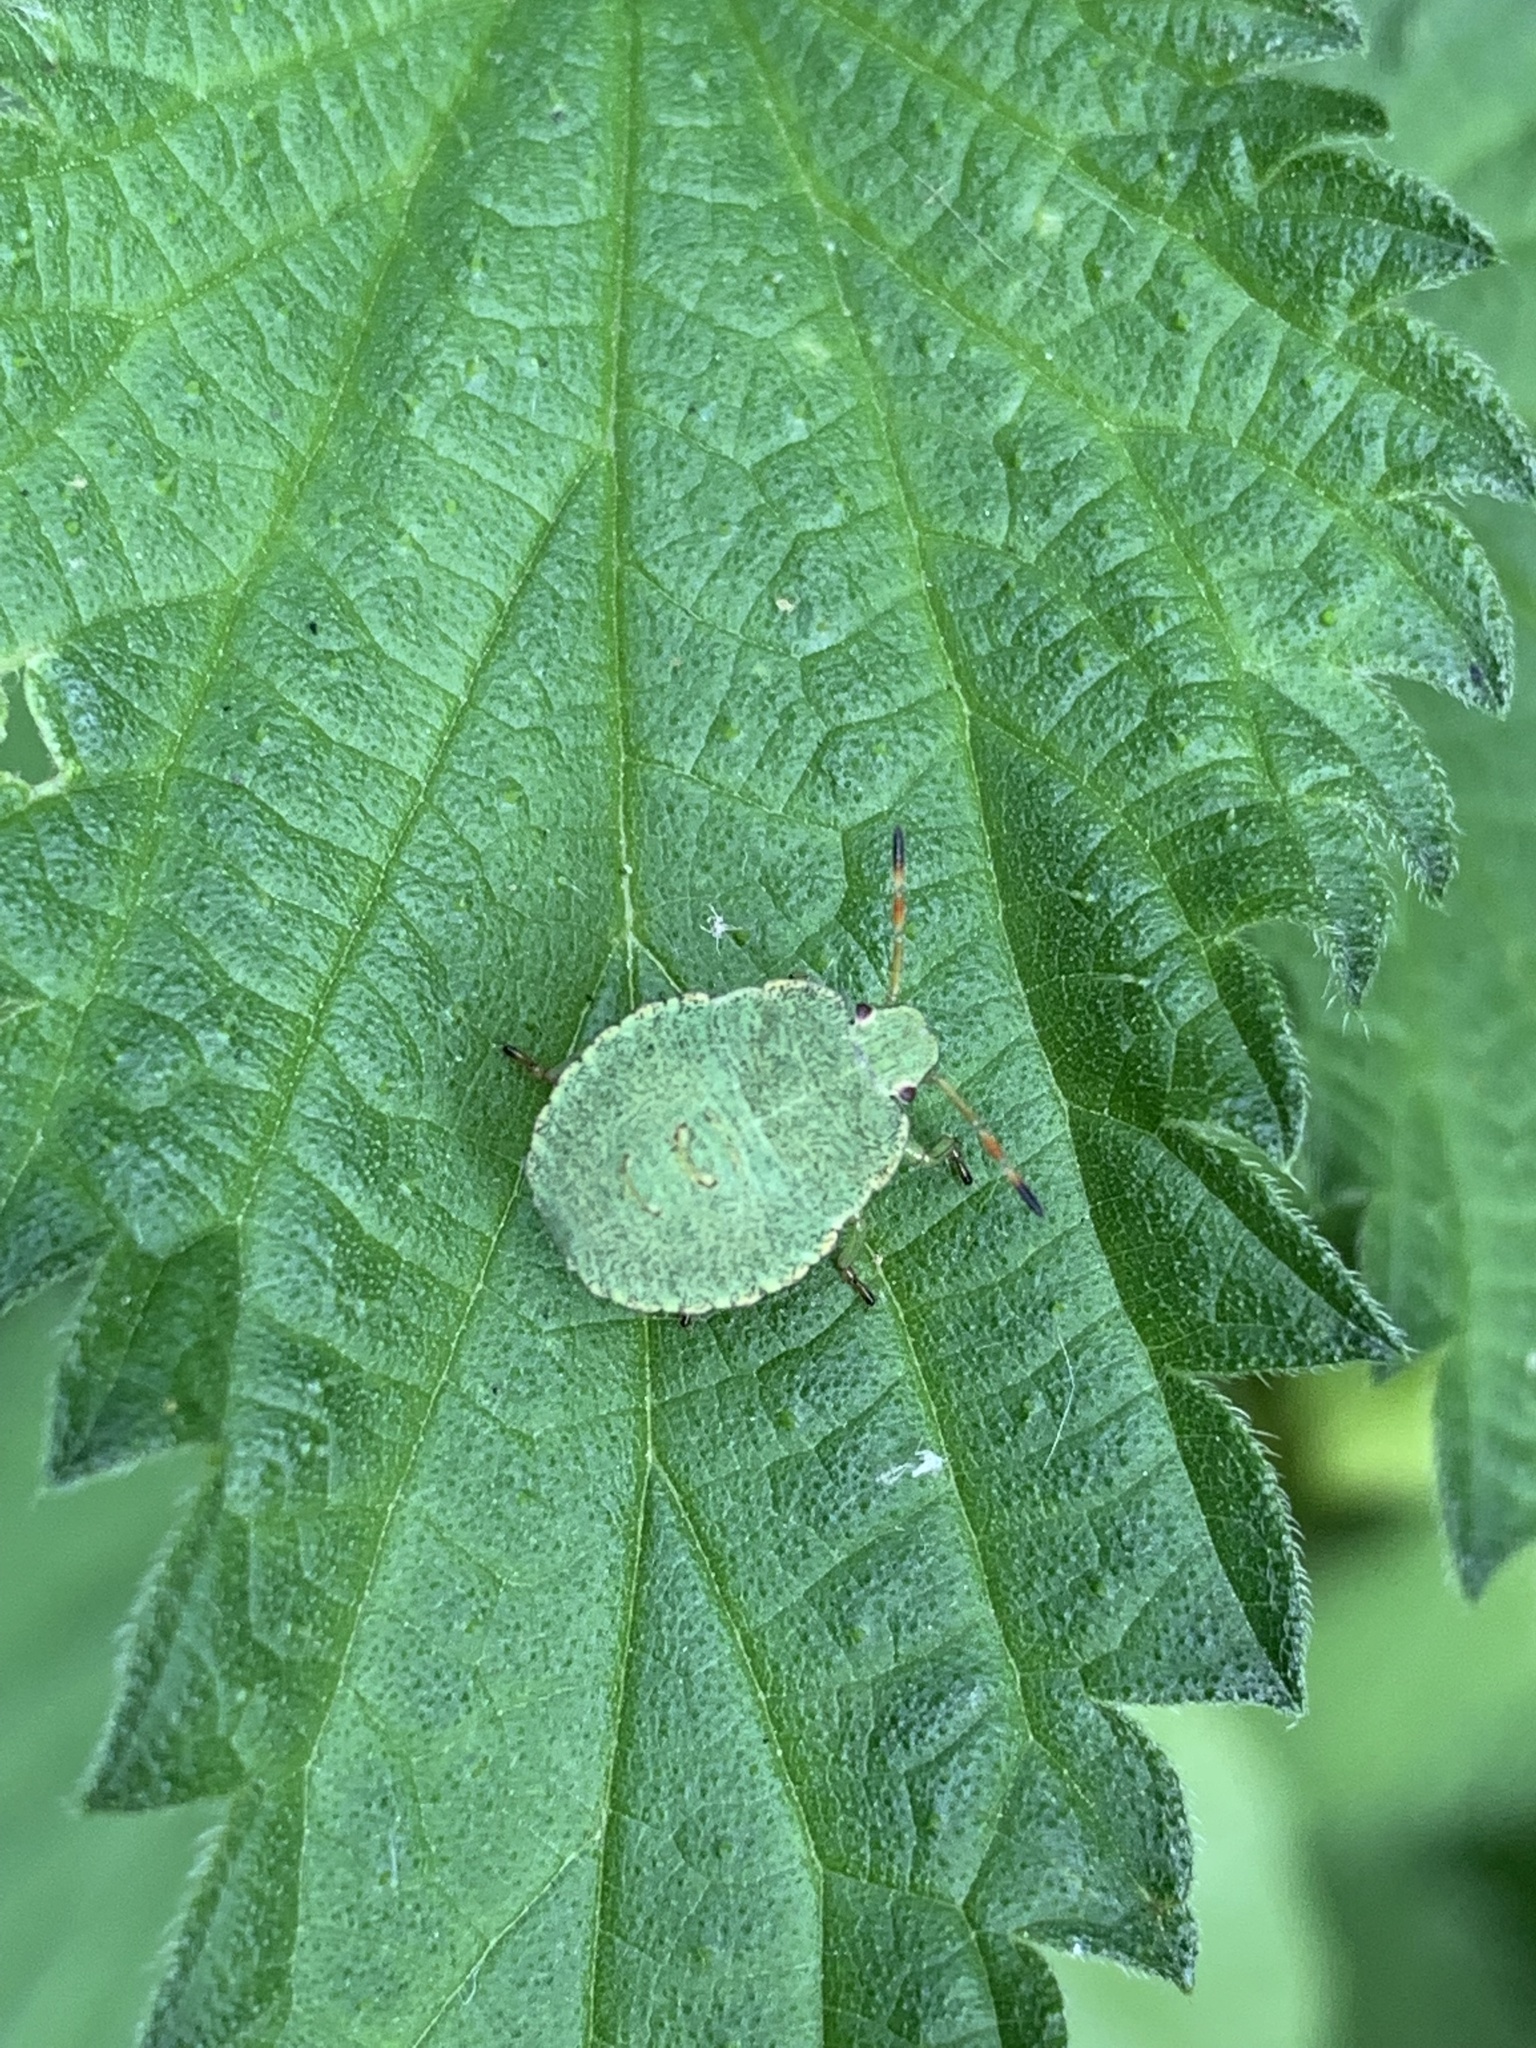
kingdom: Animalia
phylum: Arthropoda
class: Insecta
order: Hemiptera
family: Pentatomidae
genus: Palomena
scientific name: Palomena prasina
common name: Green shieldbug
